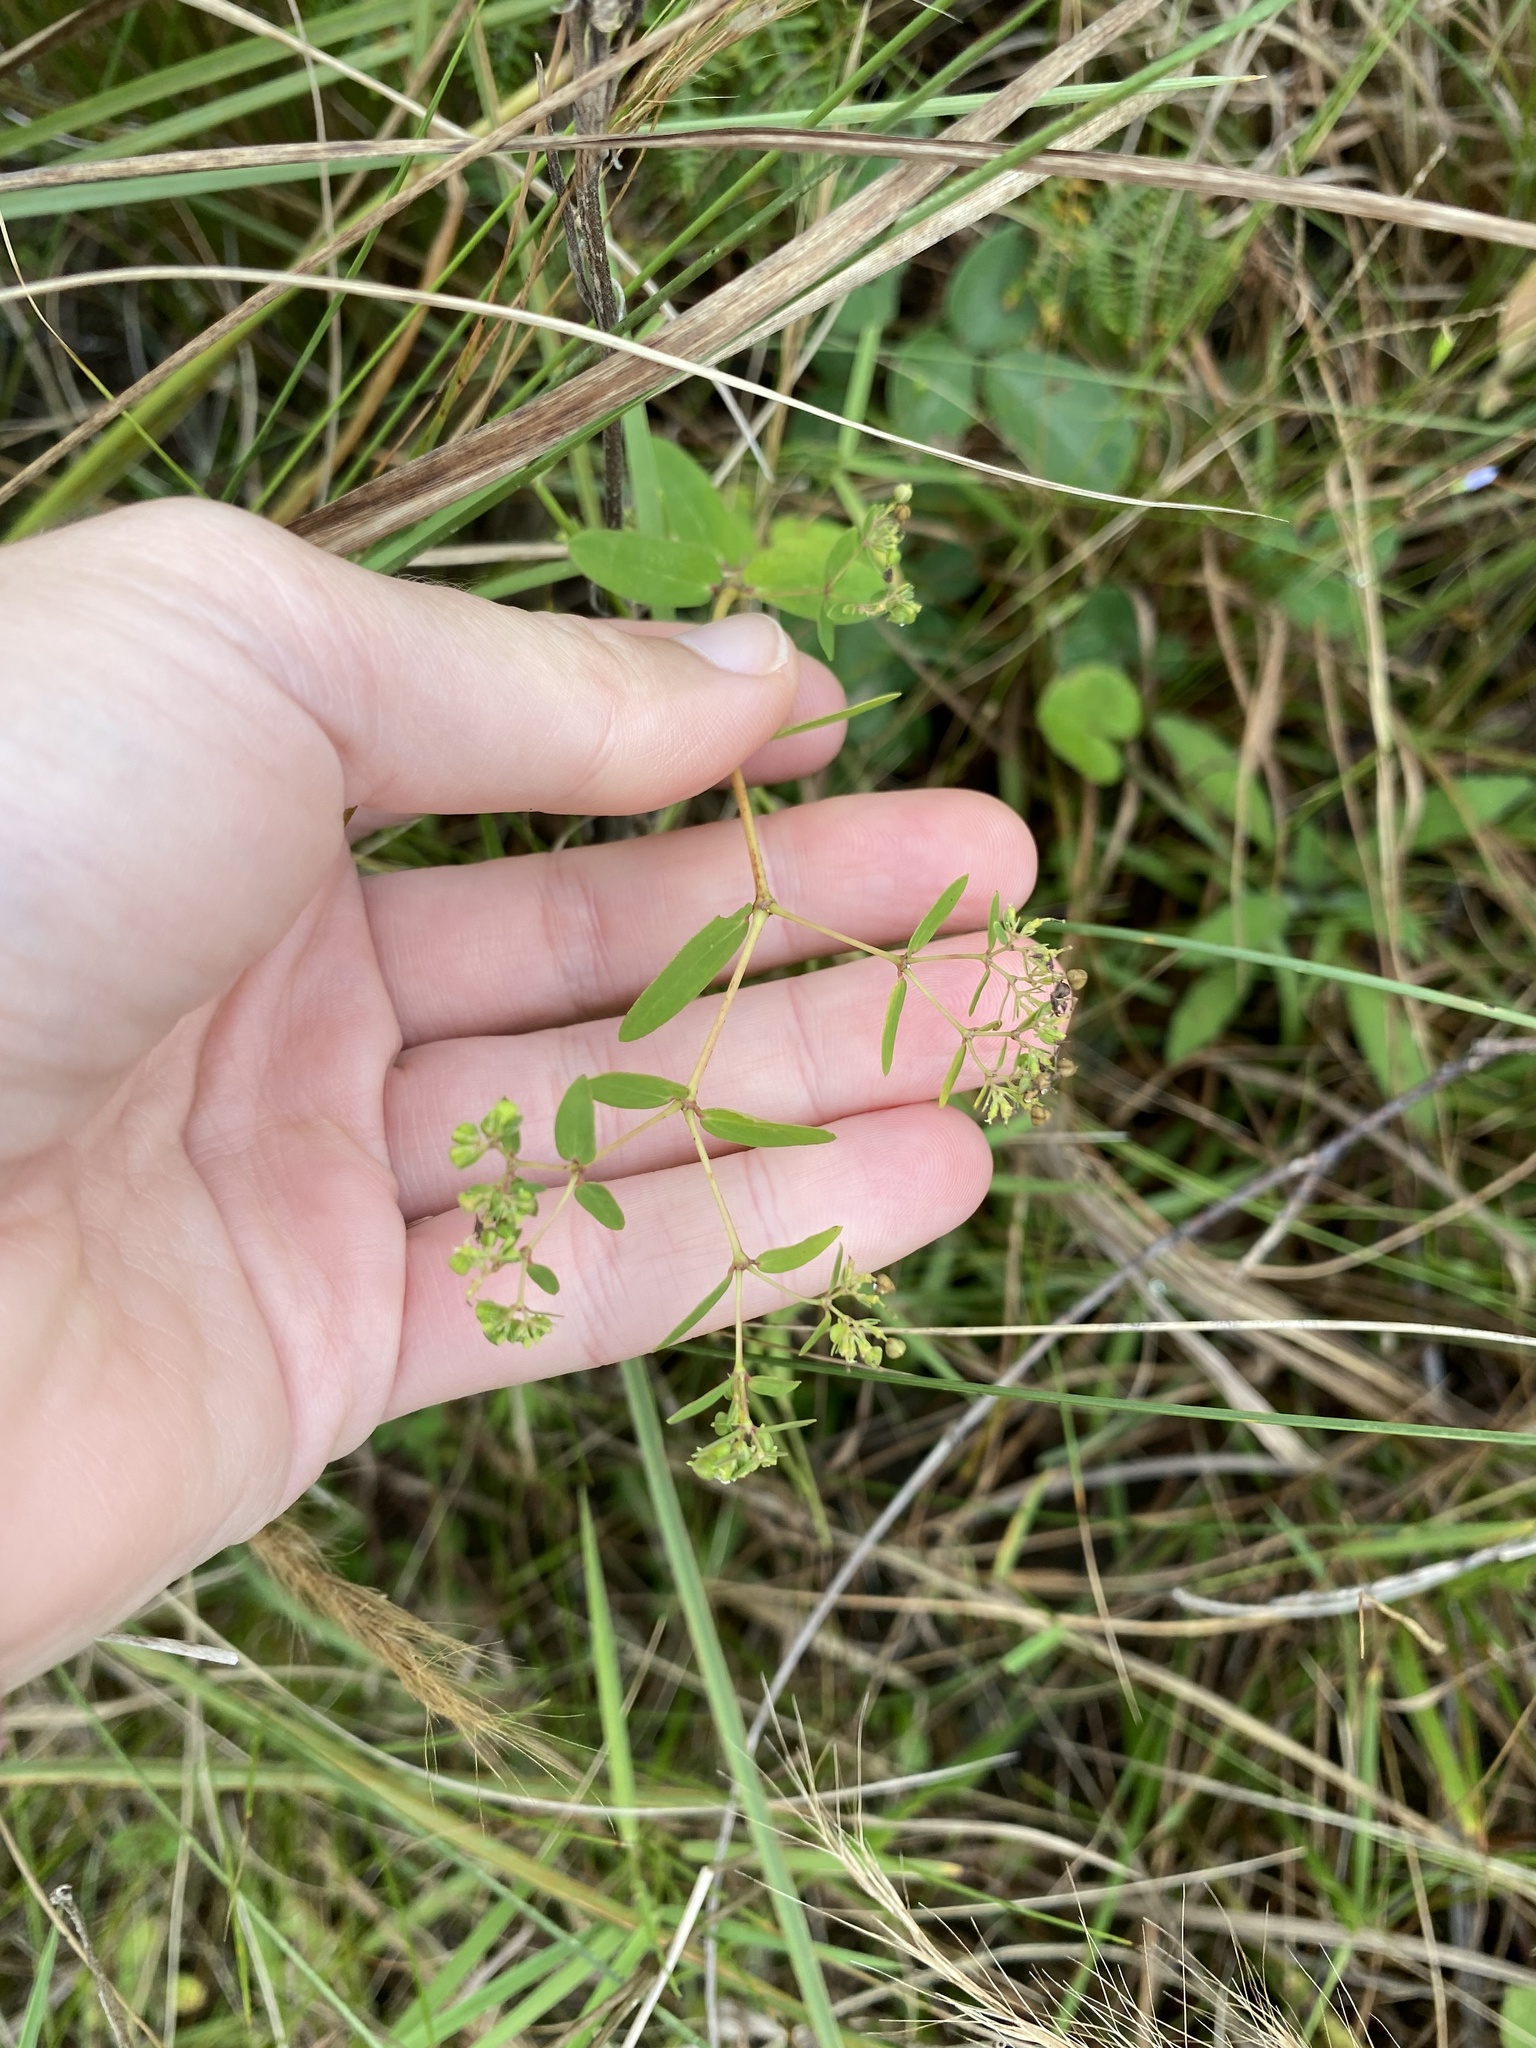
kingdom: Plantae
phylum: Tracheophyta
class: Magnoliopsida
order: Malpighiales
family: Euphorbiaceae
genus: Euphorbia
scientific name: Euphorbia hyssopifolia
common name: Hyssopleaf sandmat
